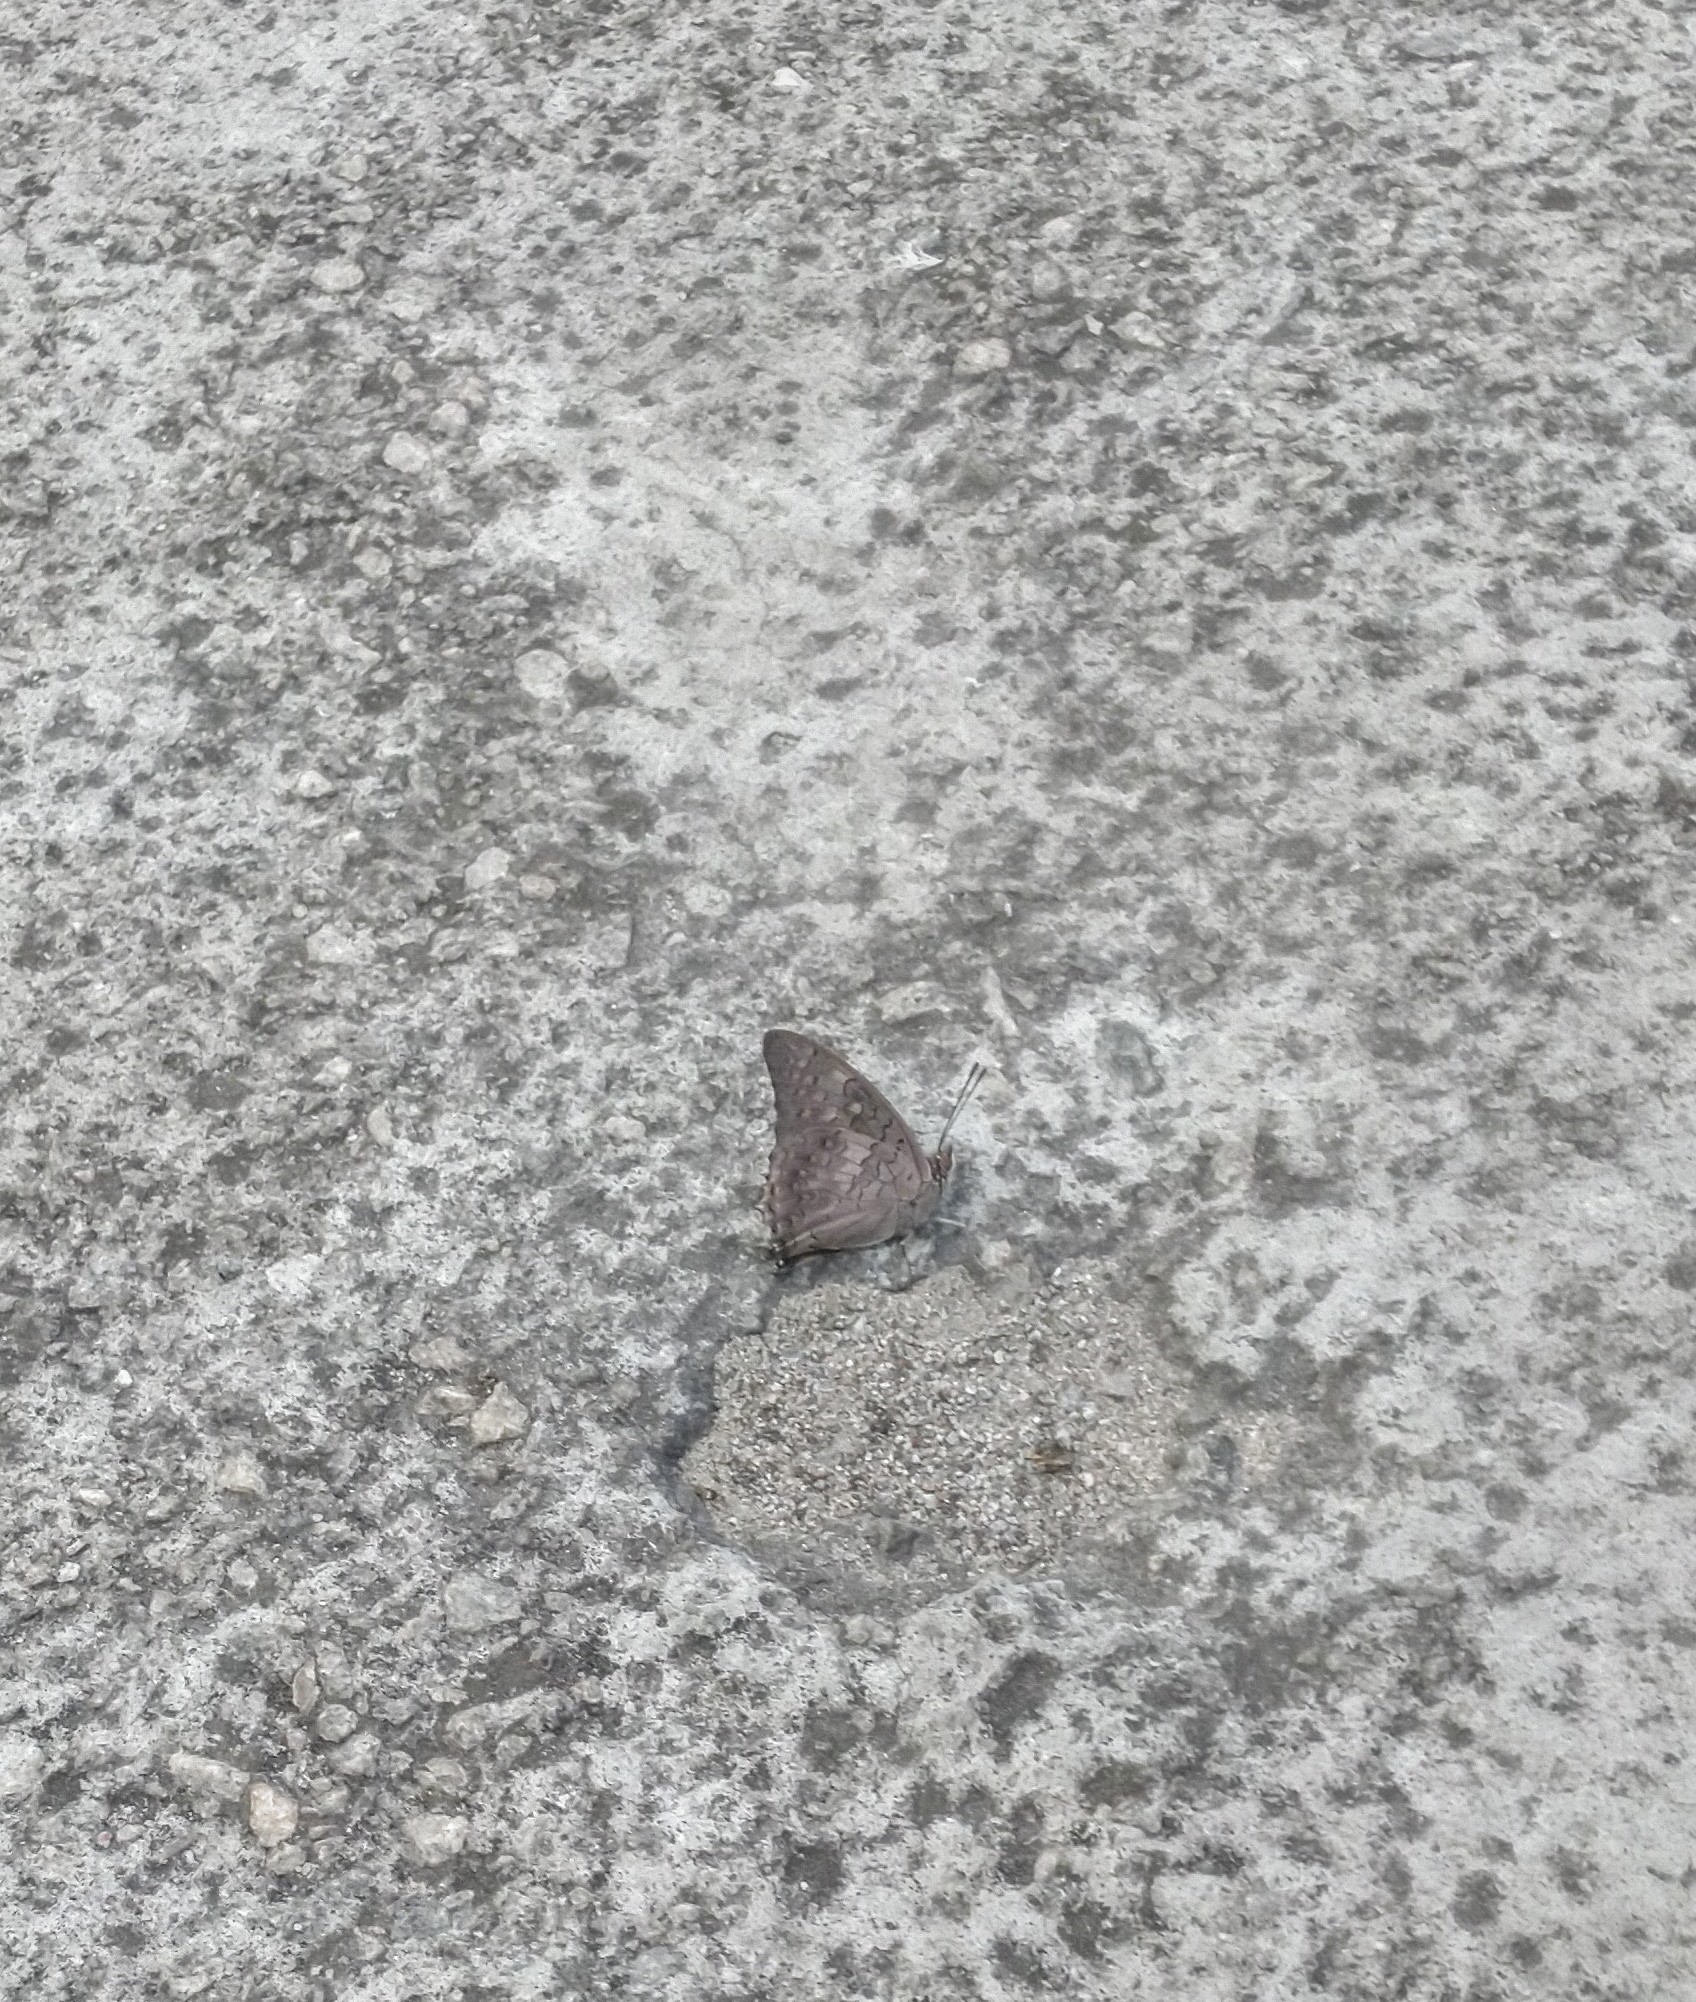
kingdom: Animalia
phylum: Arthropoda
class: Insecta
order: Lepidoptera
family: Nymphalidae
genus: Charaxes
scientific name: Charaxes solon
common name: Black rajah
